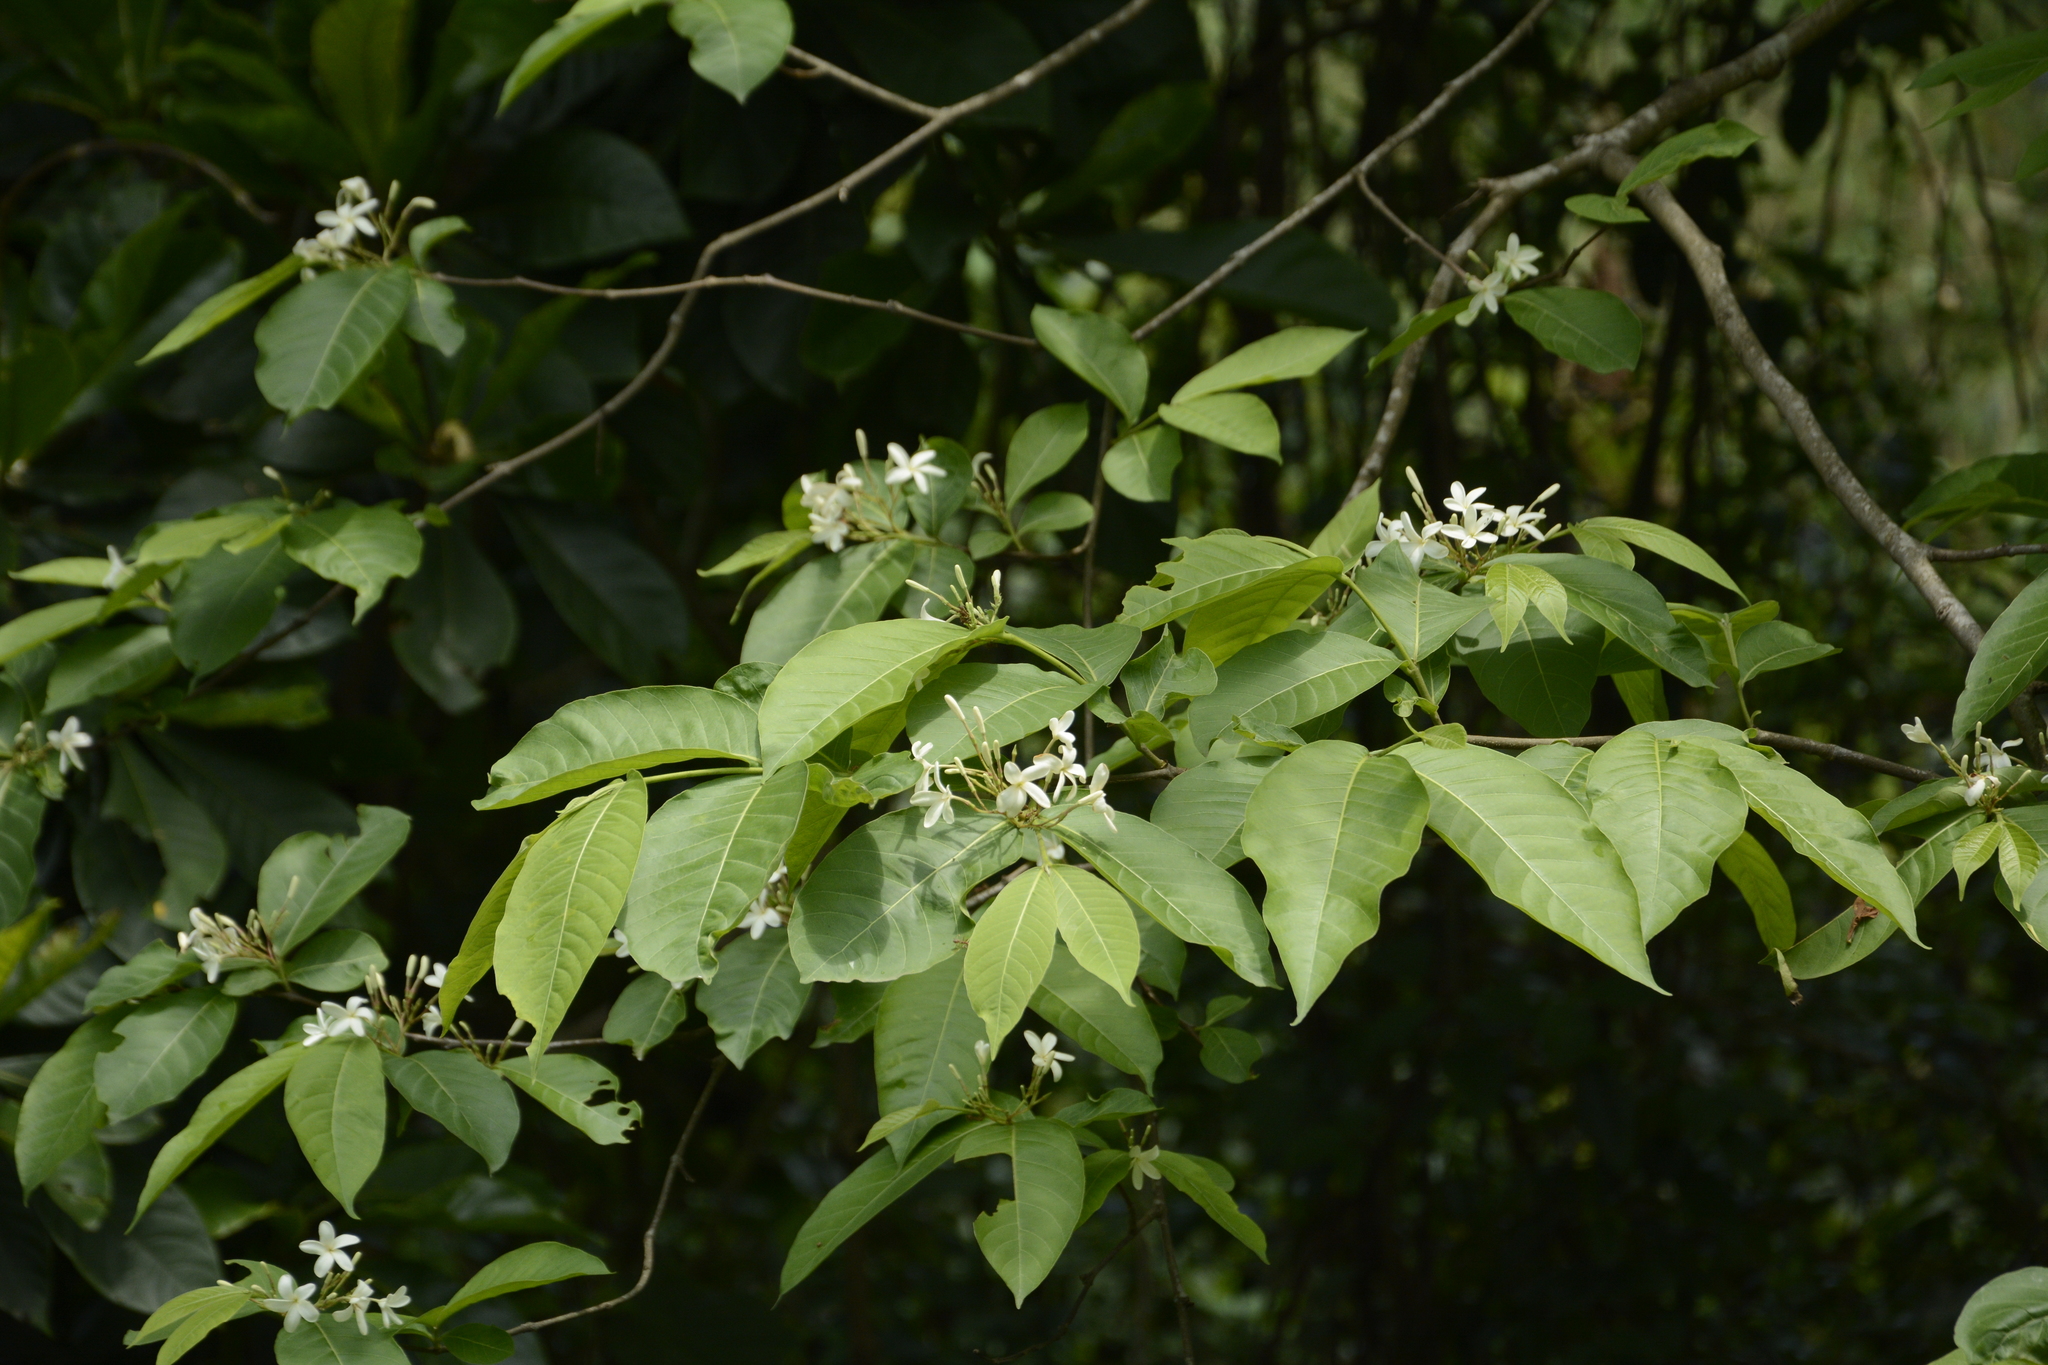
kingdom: Plantae
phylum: Tracheophyta
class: Magnoliopsida
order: Gentianales
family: Apocynaceae
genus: Holarrhena
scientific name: Holarrhena pubescens
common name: Bitter oleander
